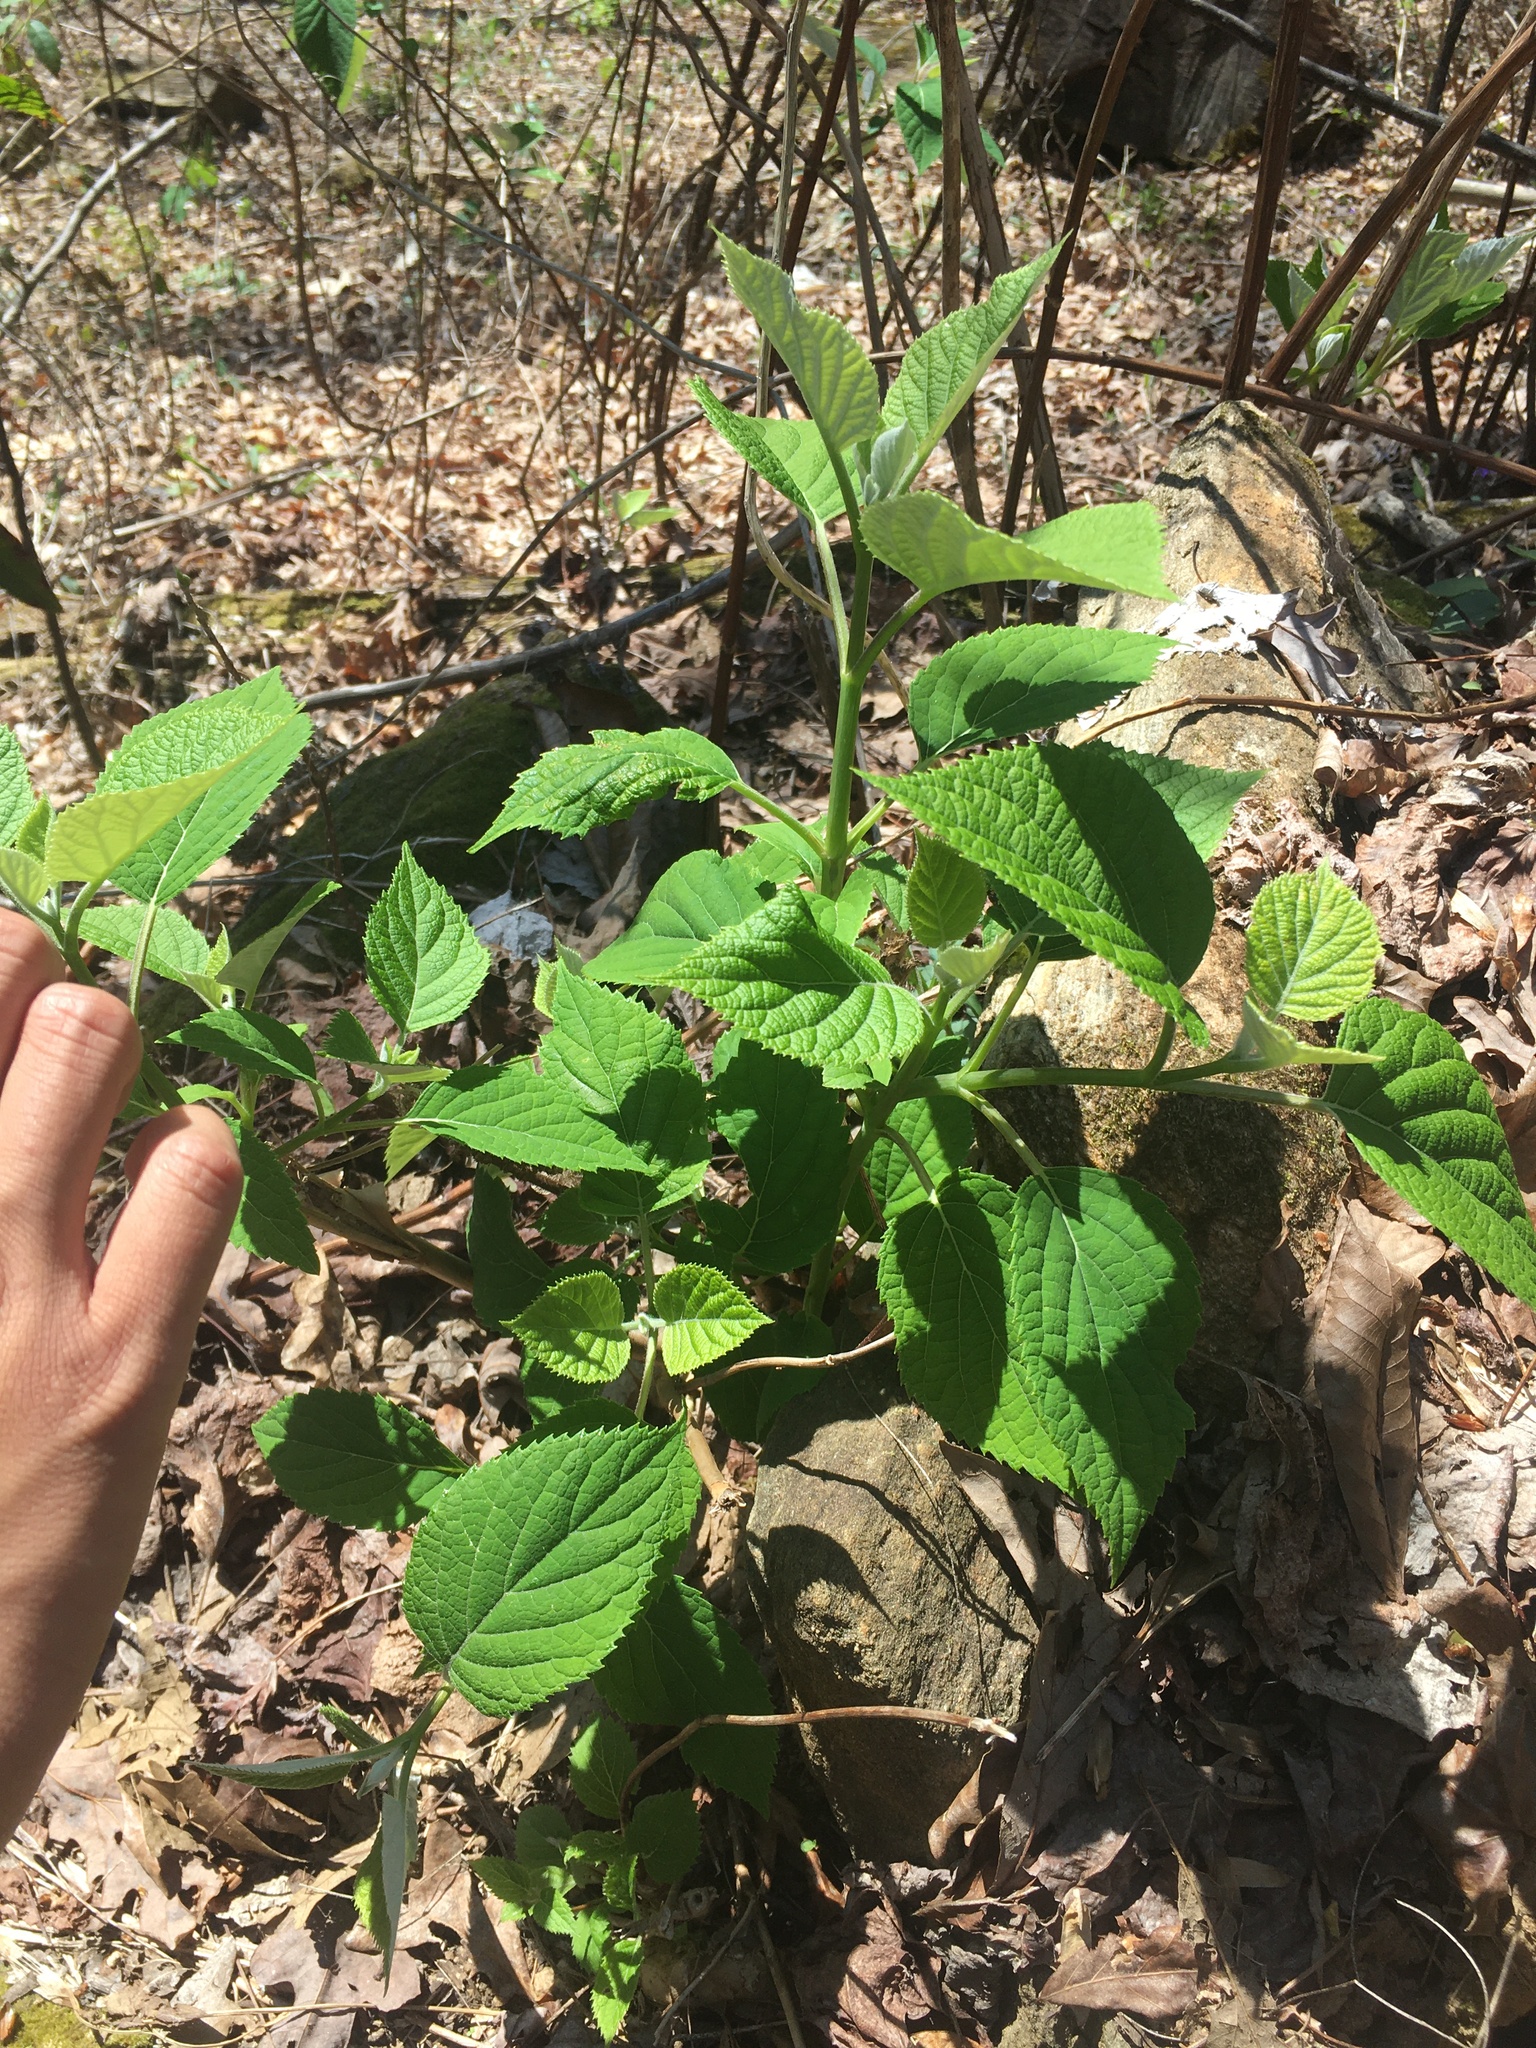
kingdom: Plantae
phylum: Tracheophyta
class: Magnoliopsida
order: Cornales
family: Hydrangeaceae
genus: Hydrangea
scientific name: Hydrangea radiata
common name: Silverleaf hydrangea
